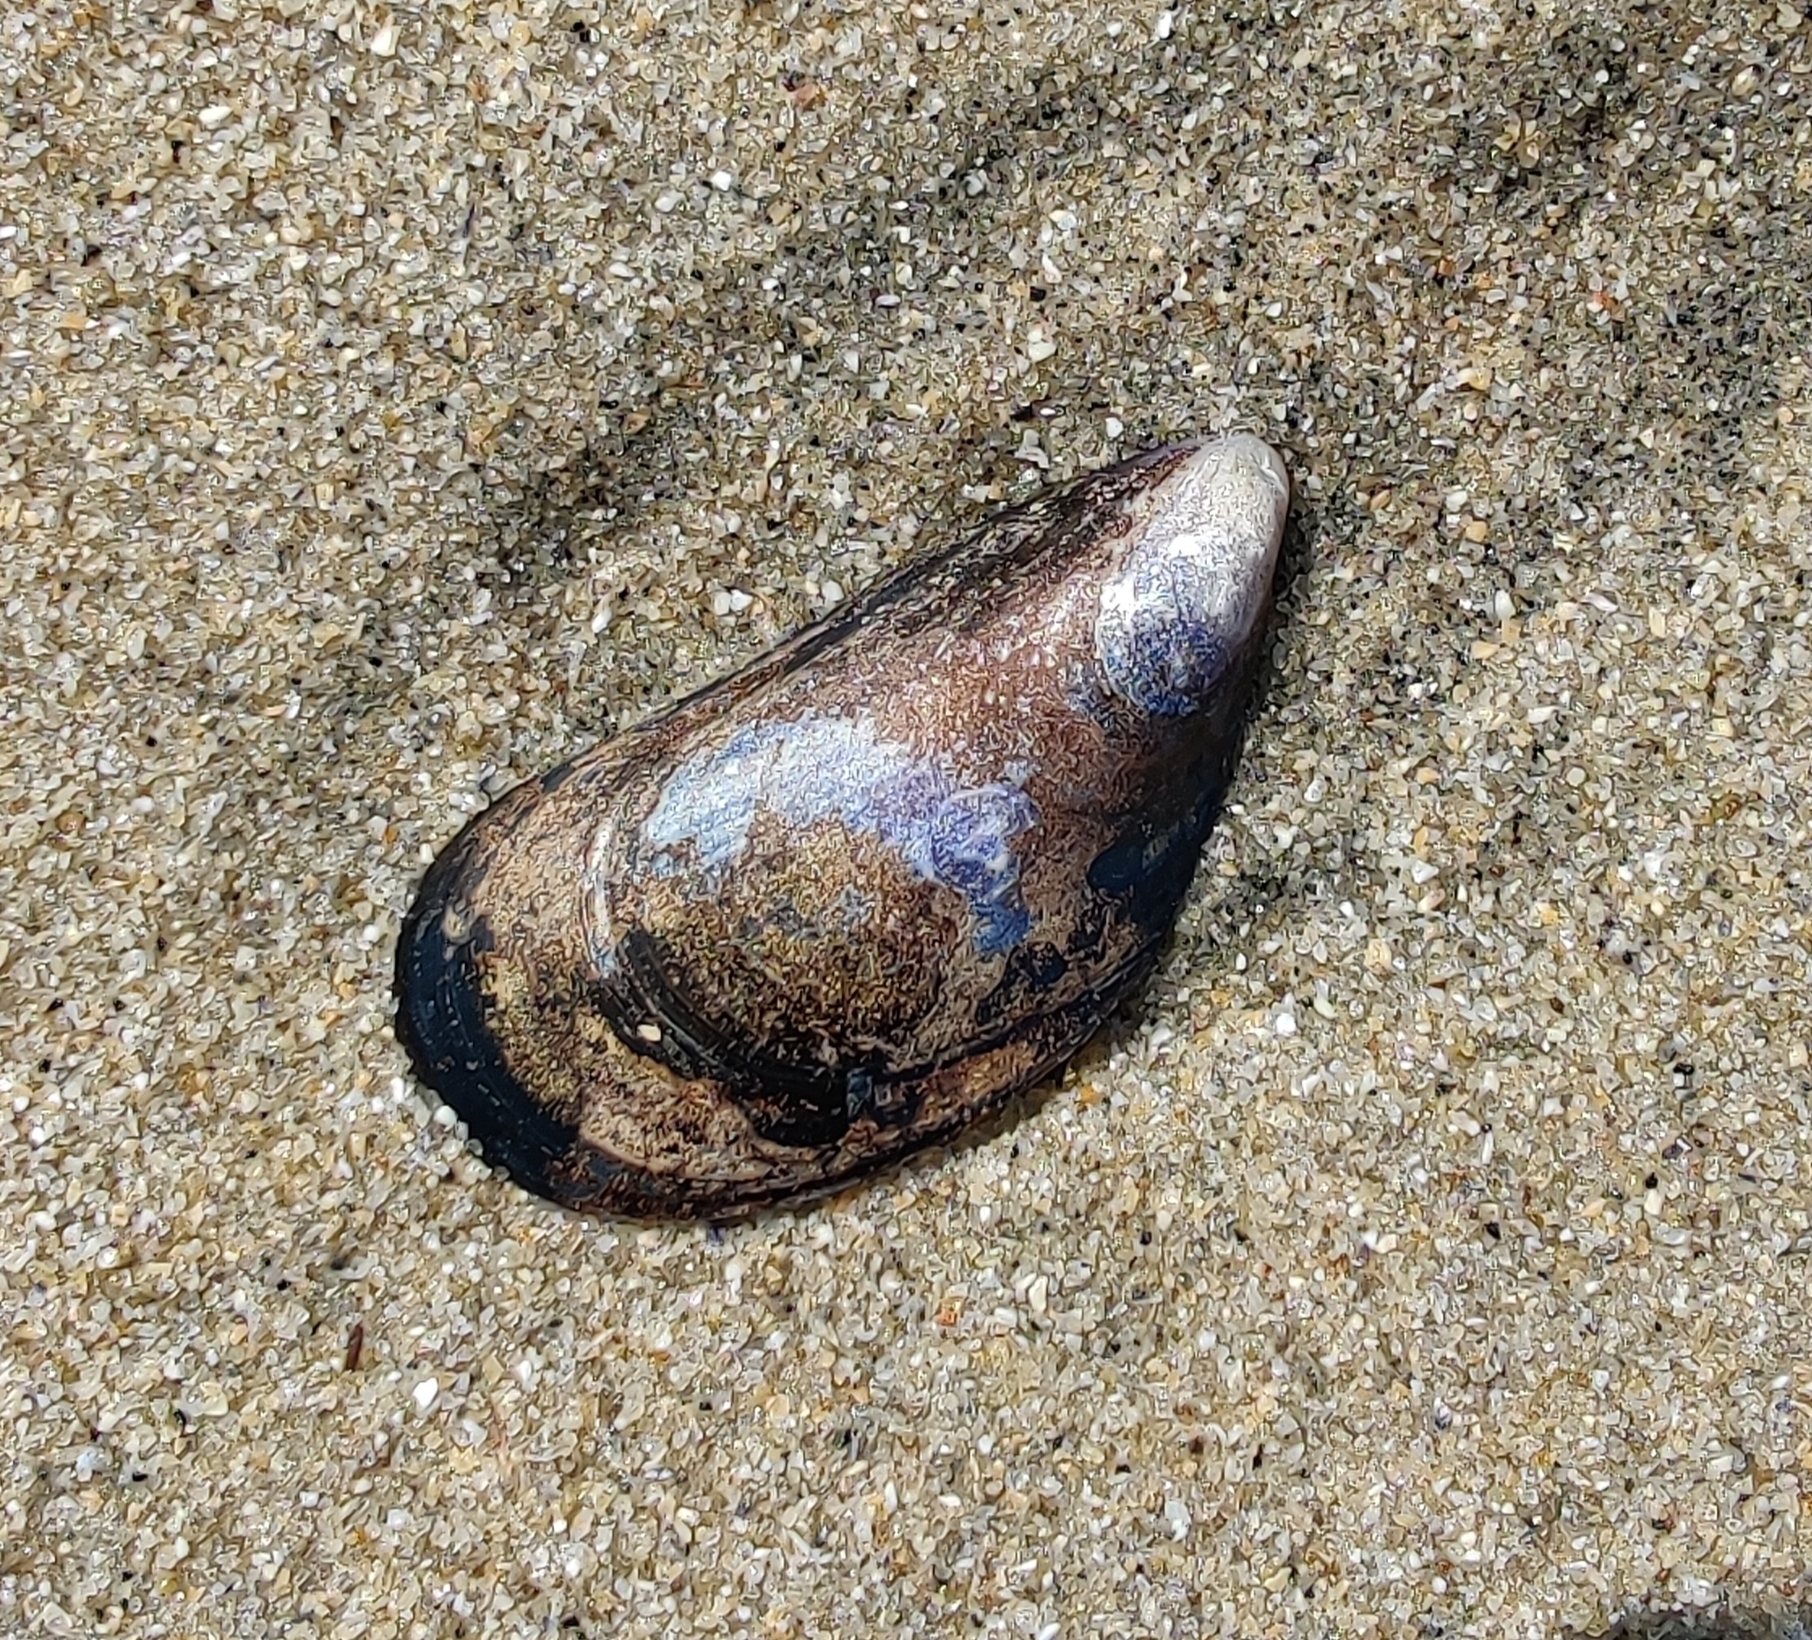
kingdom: Animalia
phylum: Mollusca
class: Bivalvia
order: Mytilida
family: Mytilidae
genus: Mytilus
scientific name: Mytilus edulis
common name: Blue mussel
